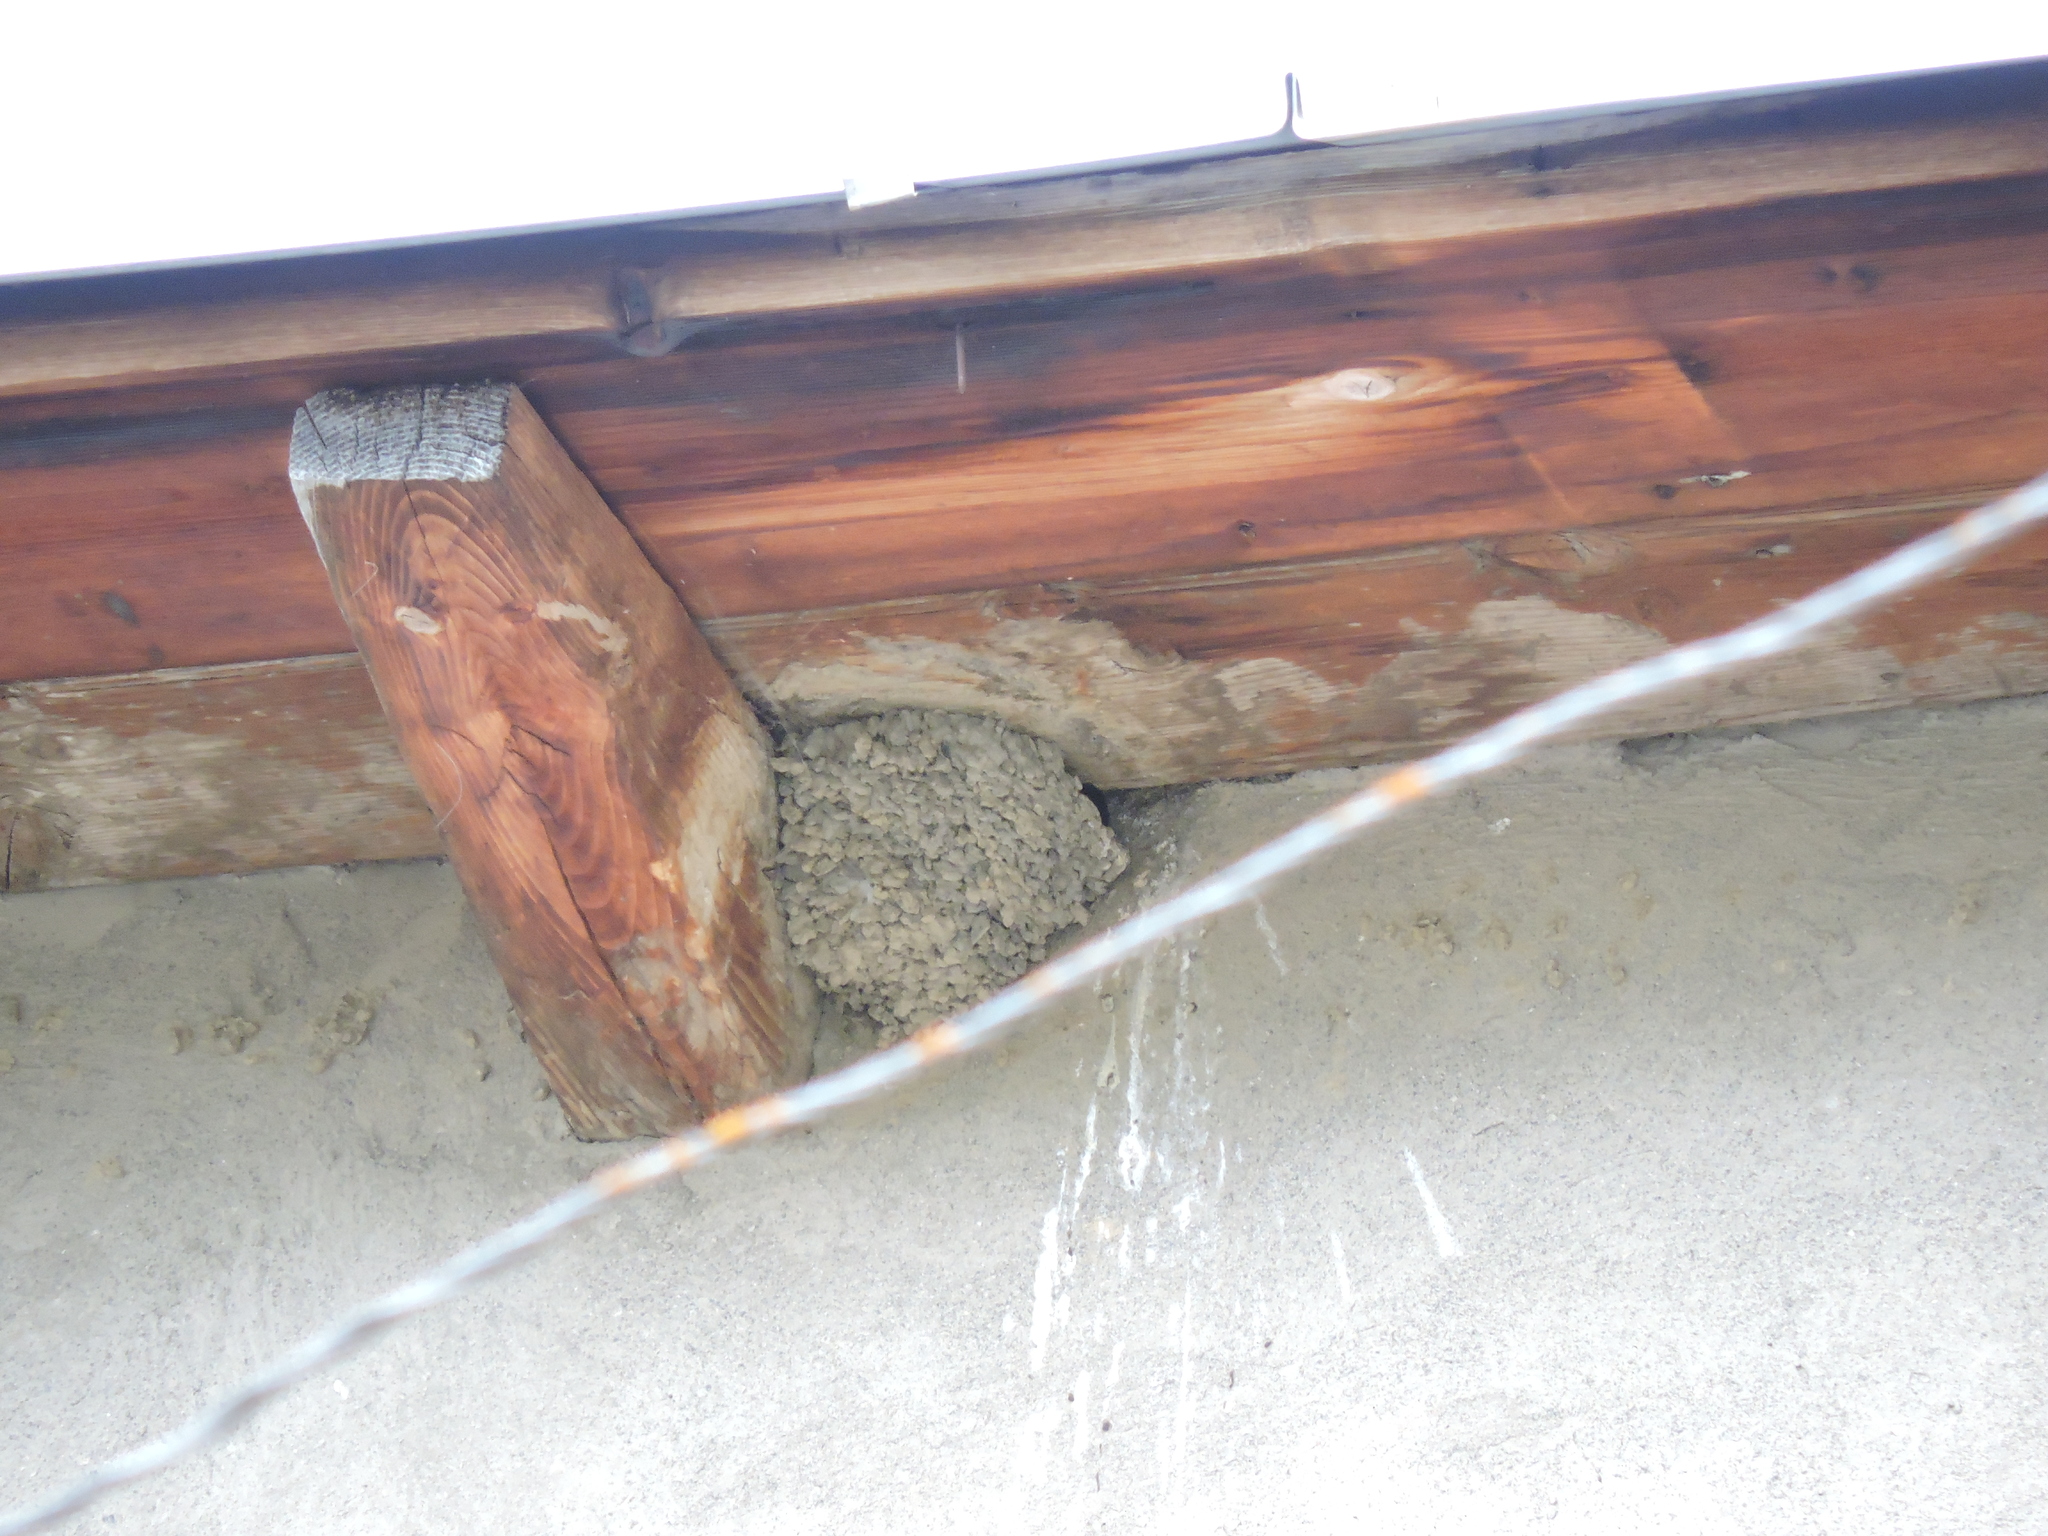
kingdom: Animalia
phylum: Chordata
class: Aves
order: Passeriformes
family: Hirundinidae
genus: Delichon
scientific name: Delichon urbicum
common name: Common house martin
